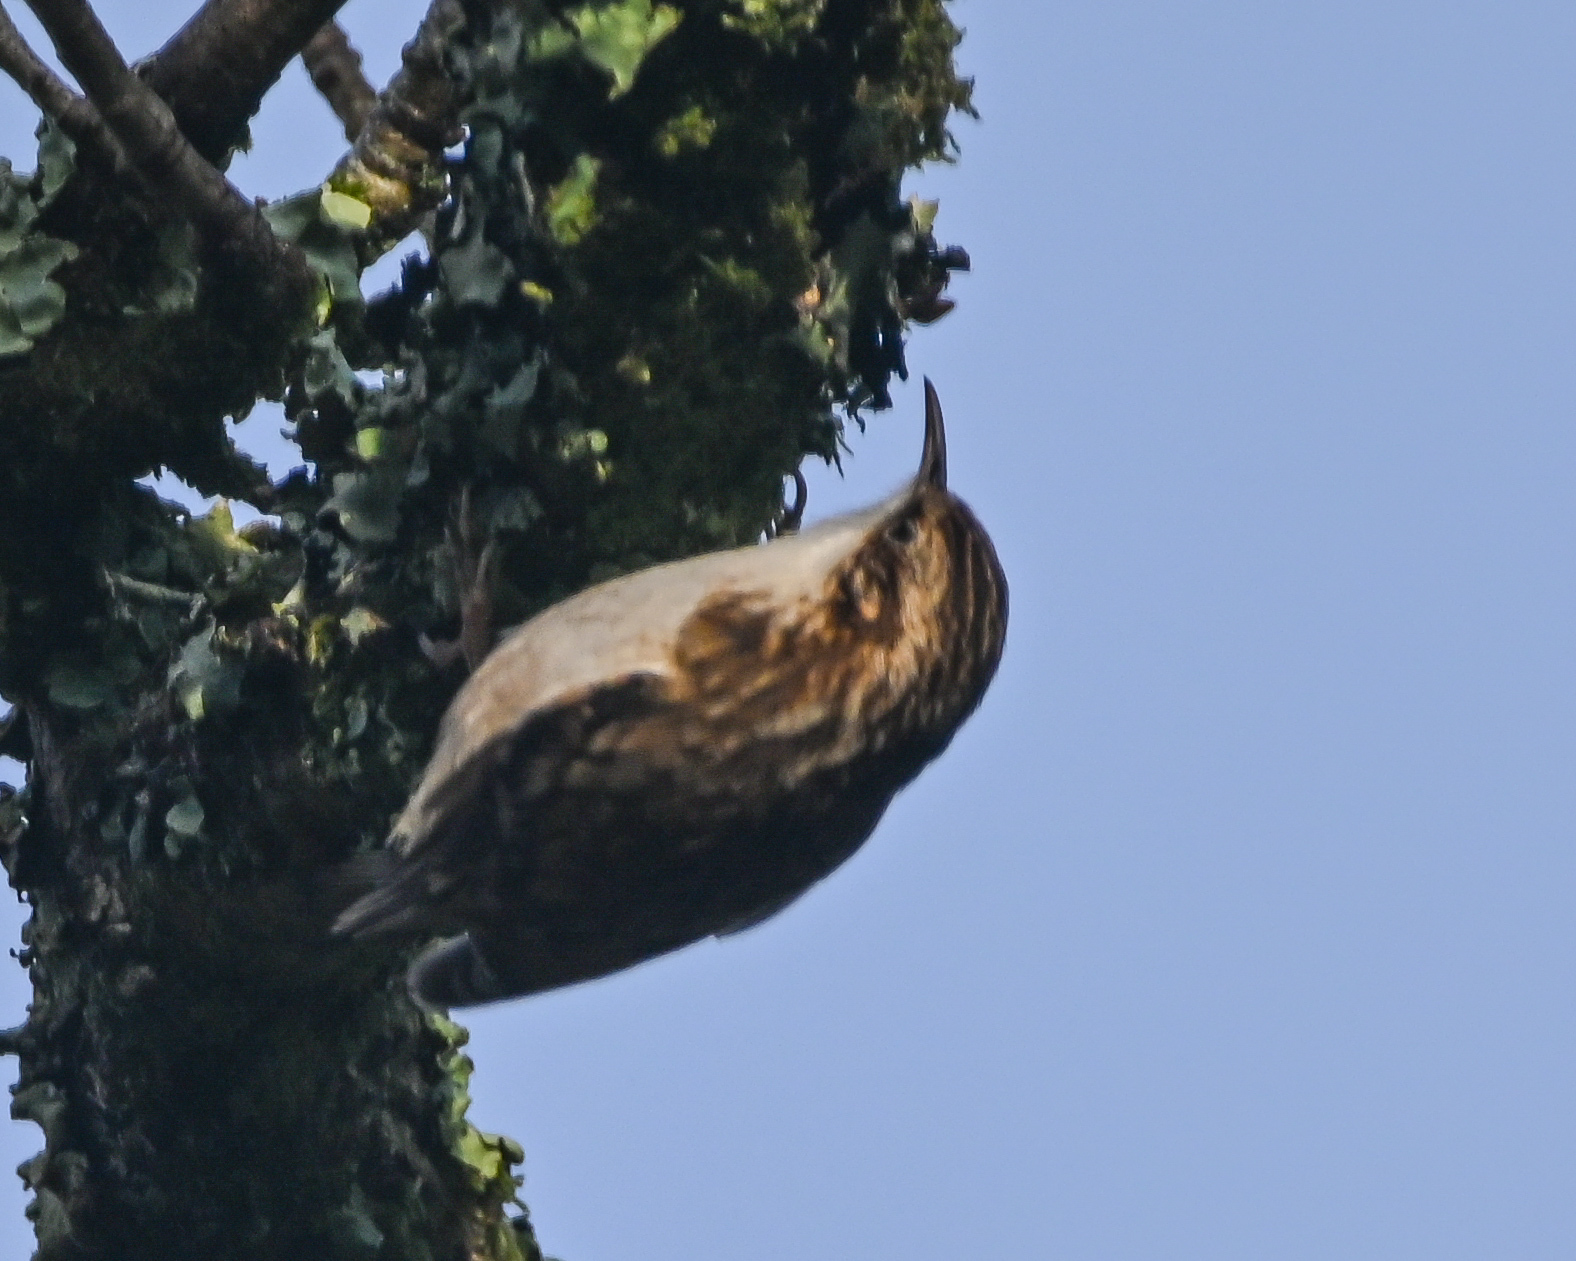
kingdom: Animalia
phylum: Chordata
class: Aves
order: Passeriformes
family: Certhiidae
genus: Certhia
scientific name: Certhia familiaris
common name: Eurasian treecreeper
